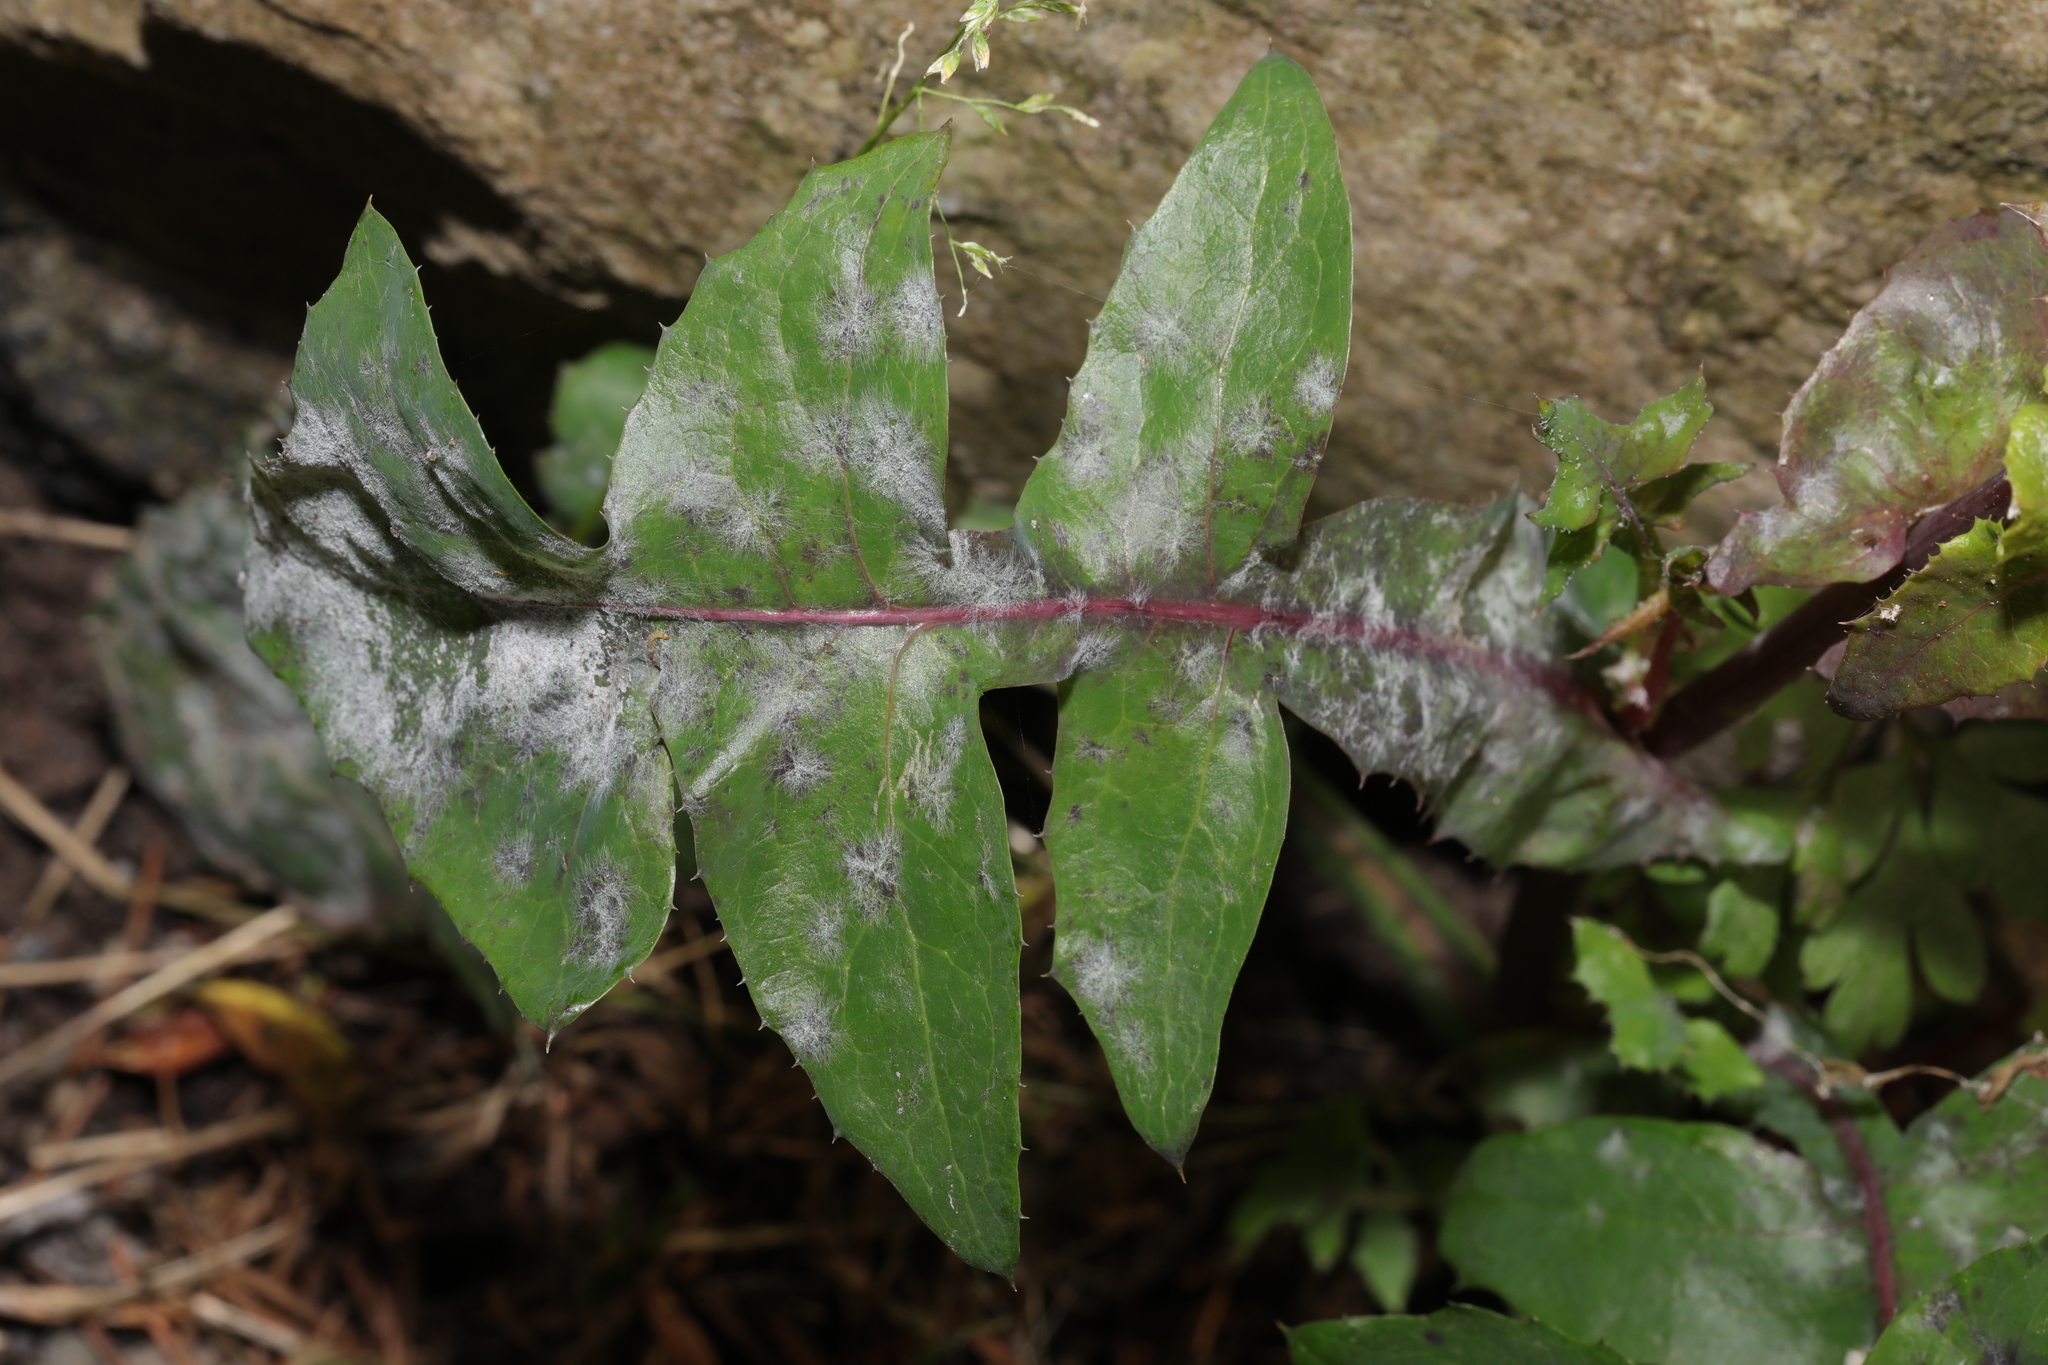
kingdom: Fungi
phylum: Ascomycota
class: Leotiomycetes
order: Helotiales
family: Erysiphaceae
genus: Golovinomyces
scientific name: Golovinomyces sonchicola
